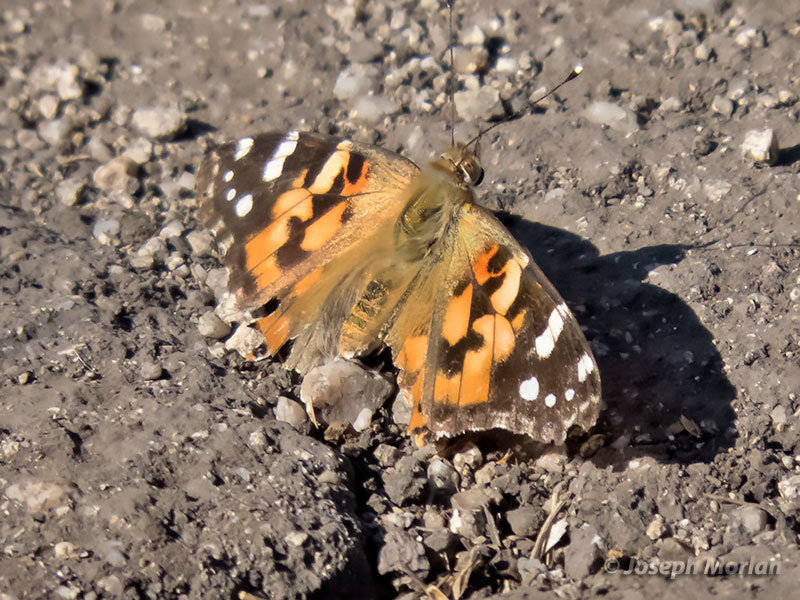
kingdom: Animalia
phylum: Arthropoda
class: Insecta
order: Lepidoptera
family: Nymphalidae
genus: Vanessa
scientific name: Vanessa cardui
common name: Painted lady
